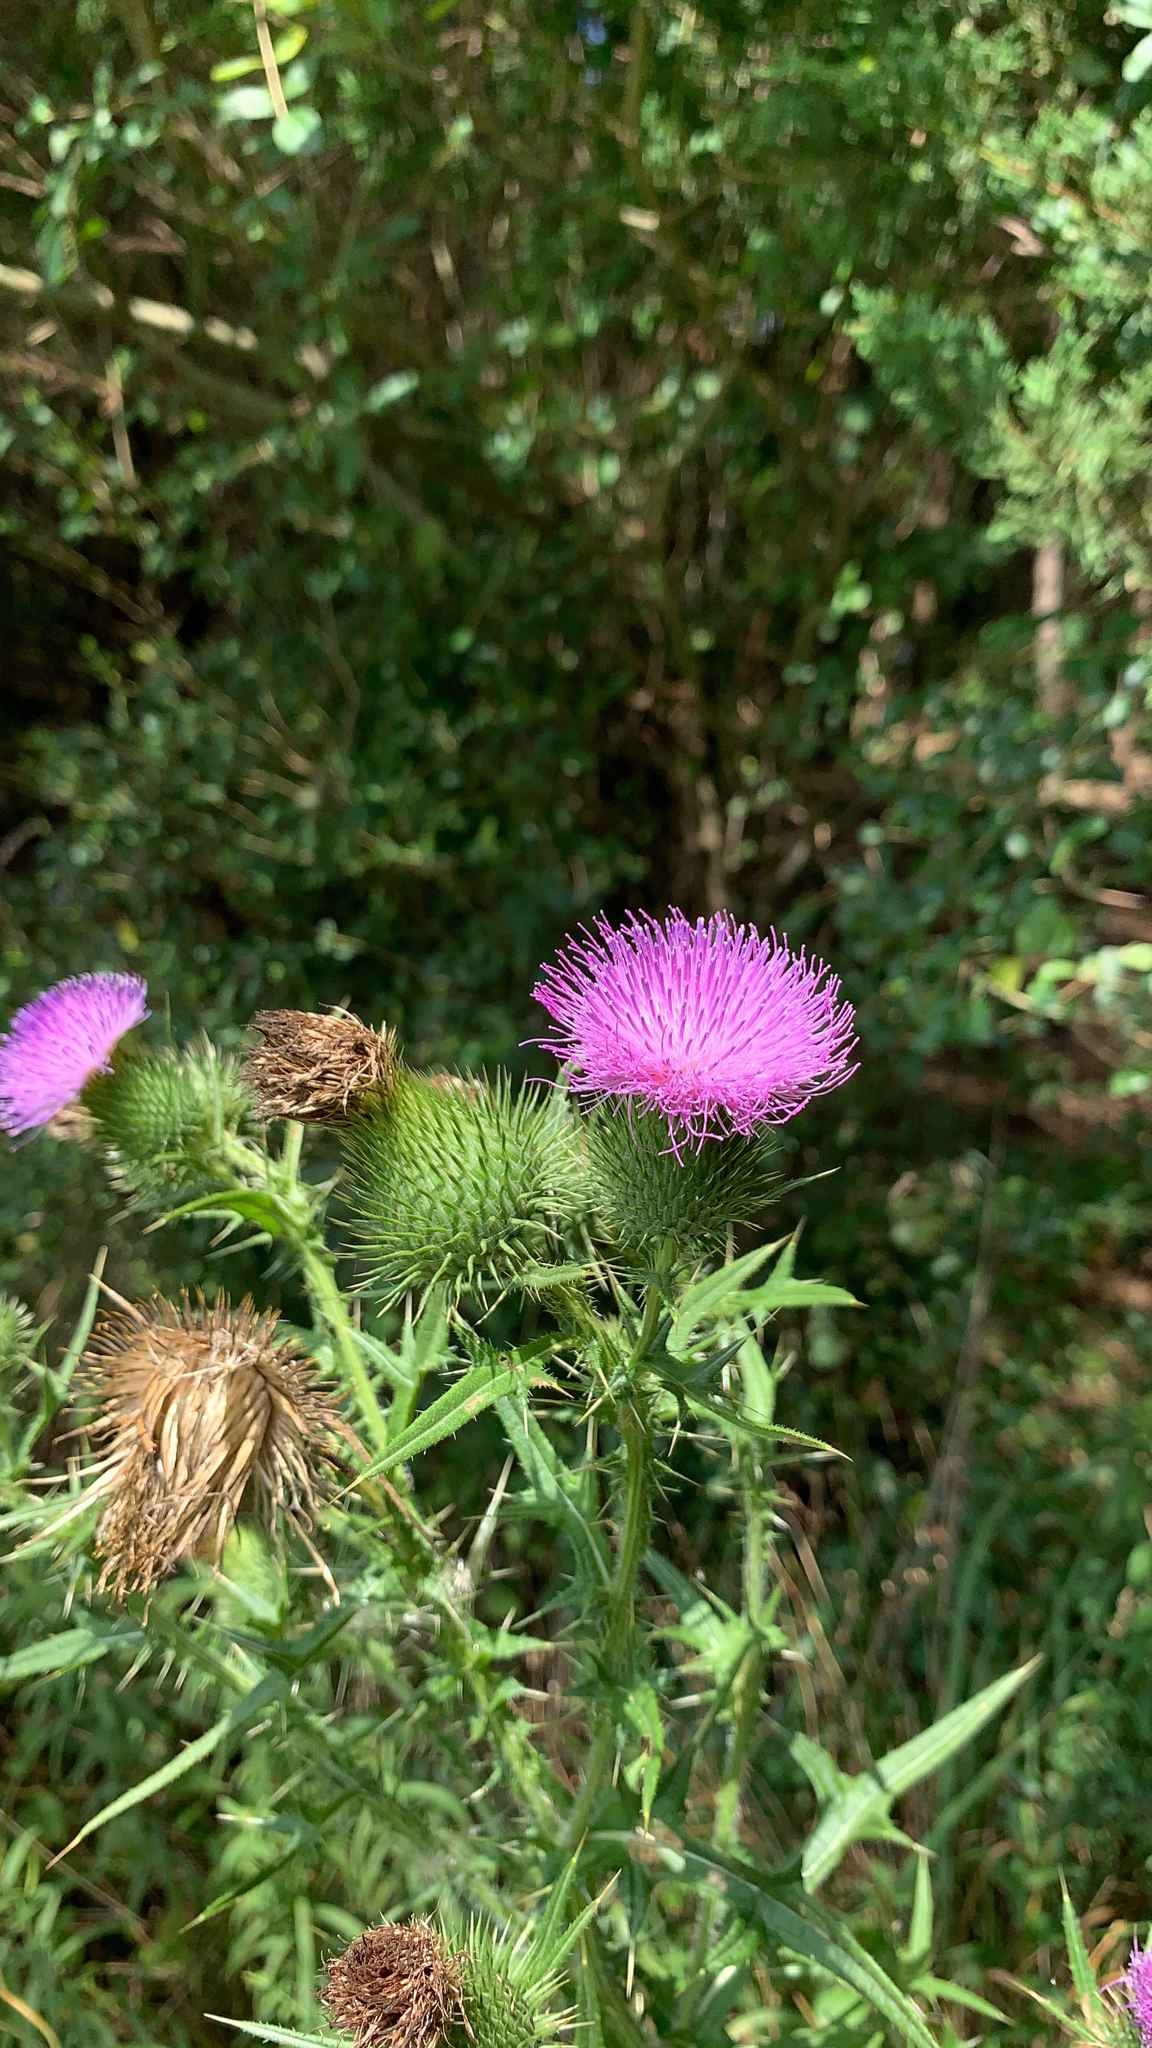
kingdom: Plantae
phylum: Tracheophyta
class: Magnoliopsida
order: Asterales
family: Asteraceae
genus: Cirsium
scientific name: Cirsium vulgare
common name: Bull thistle
